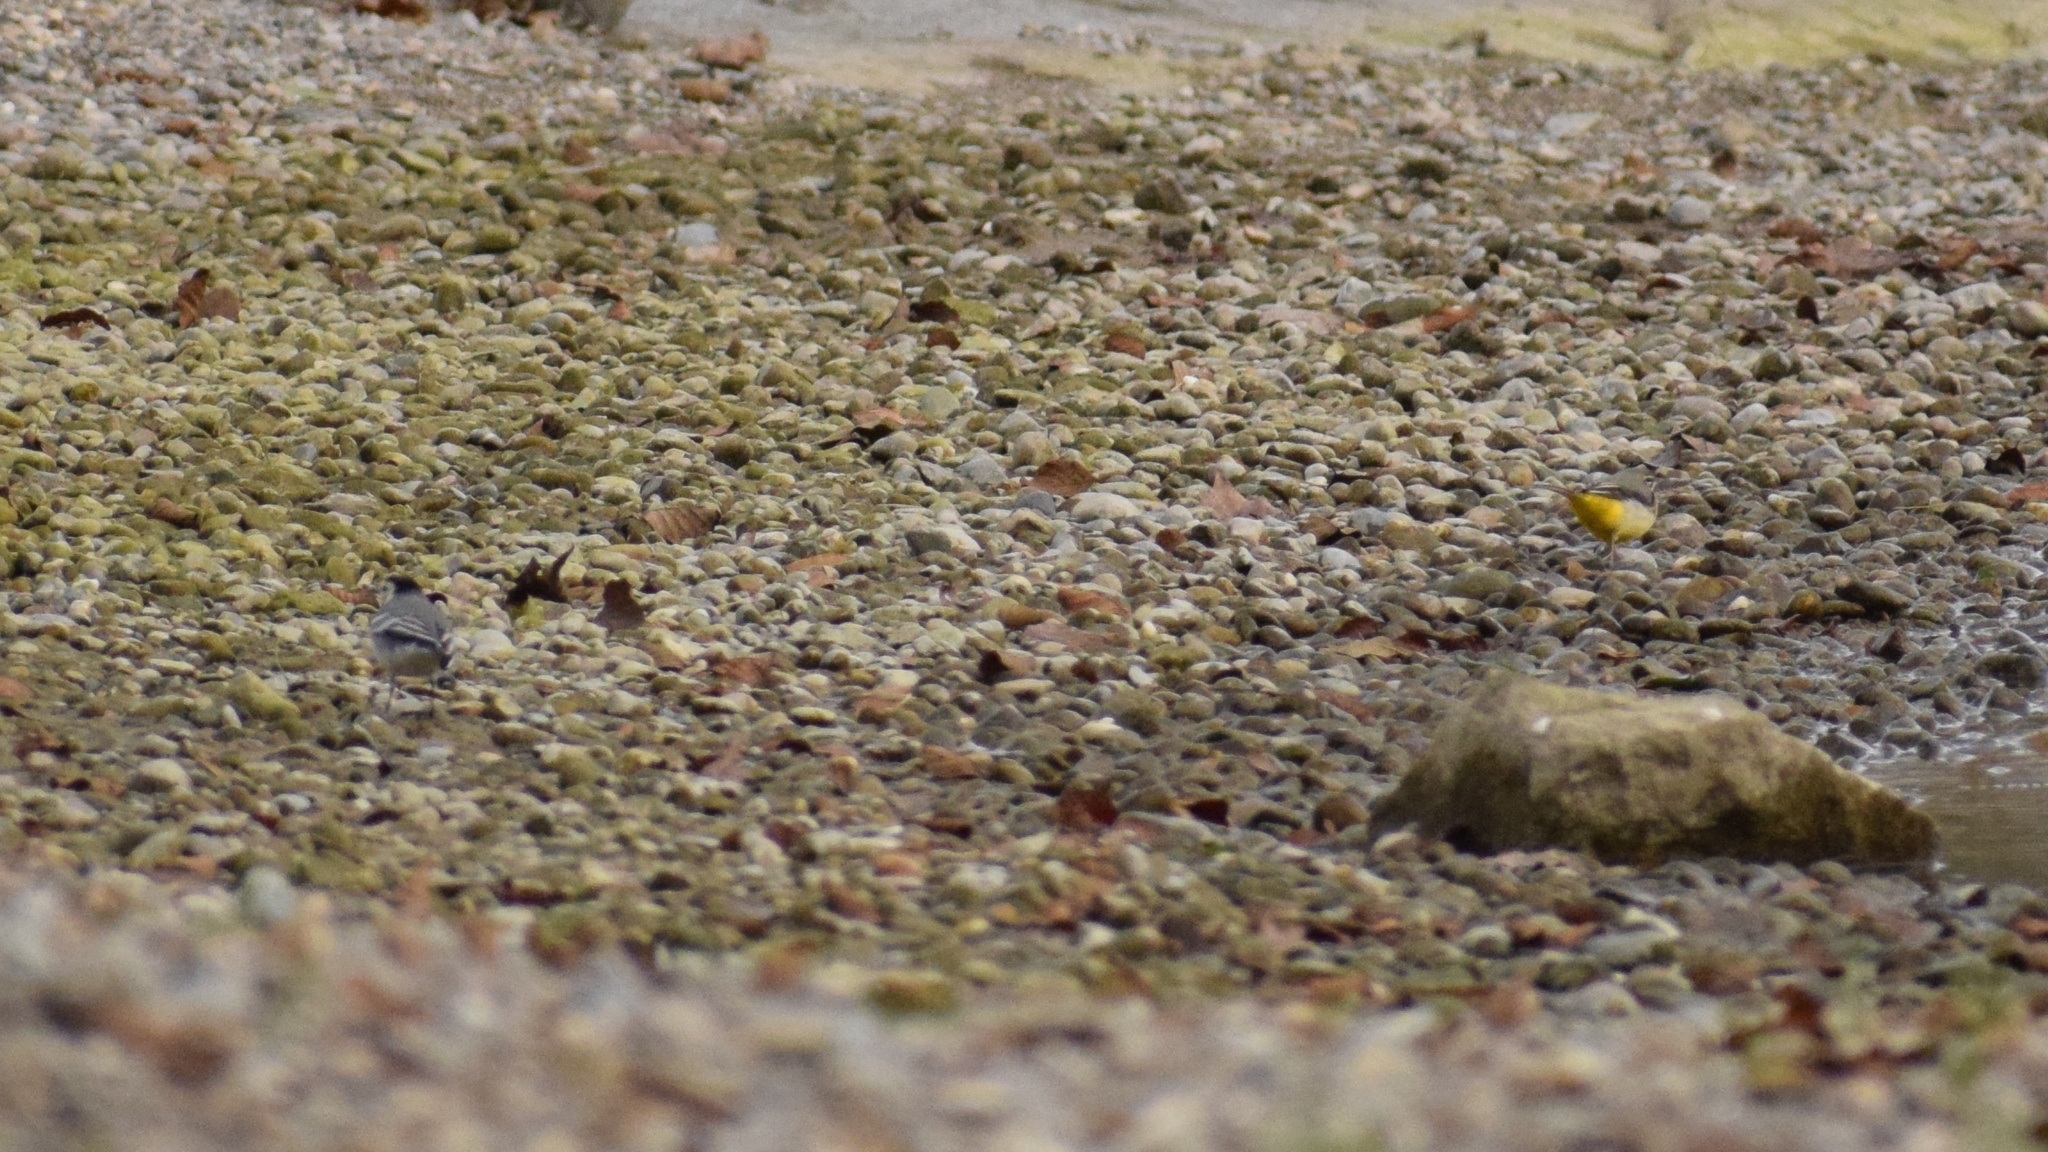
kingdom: Animalia
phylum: Chordata
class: Aves
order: Passeriformes
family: Motacillidae
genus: Motacilla
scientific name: Motacilla alba
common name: White wagtail
